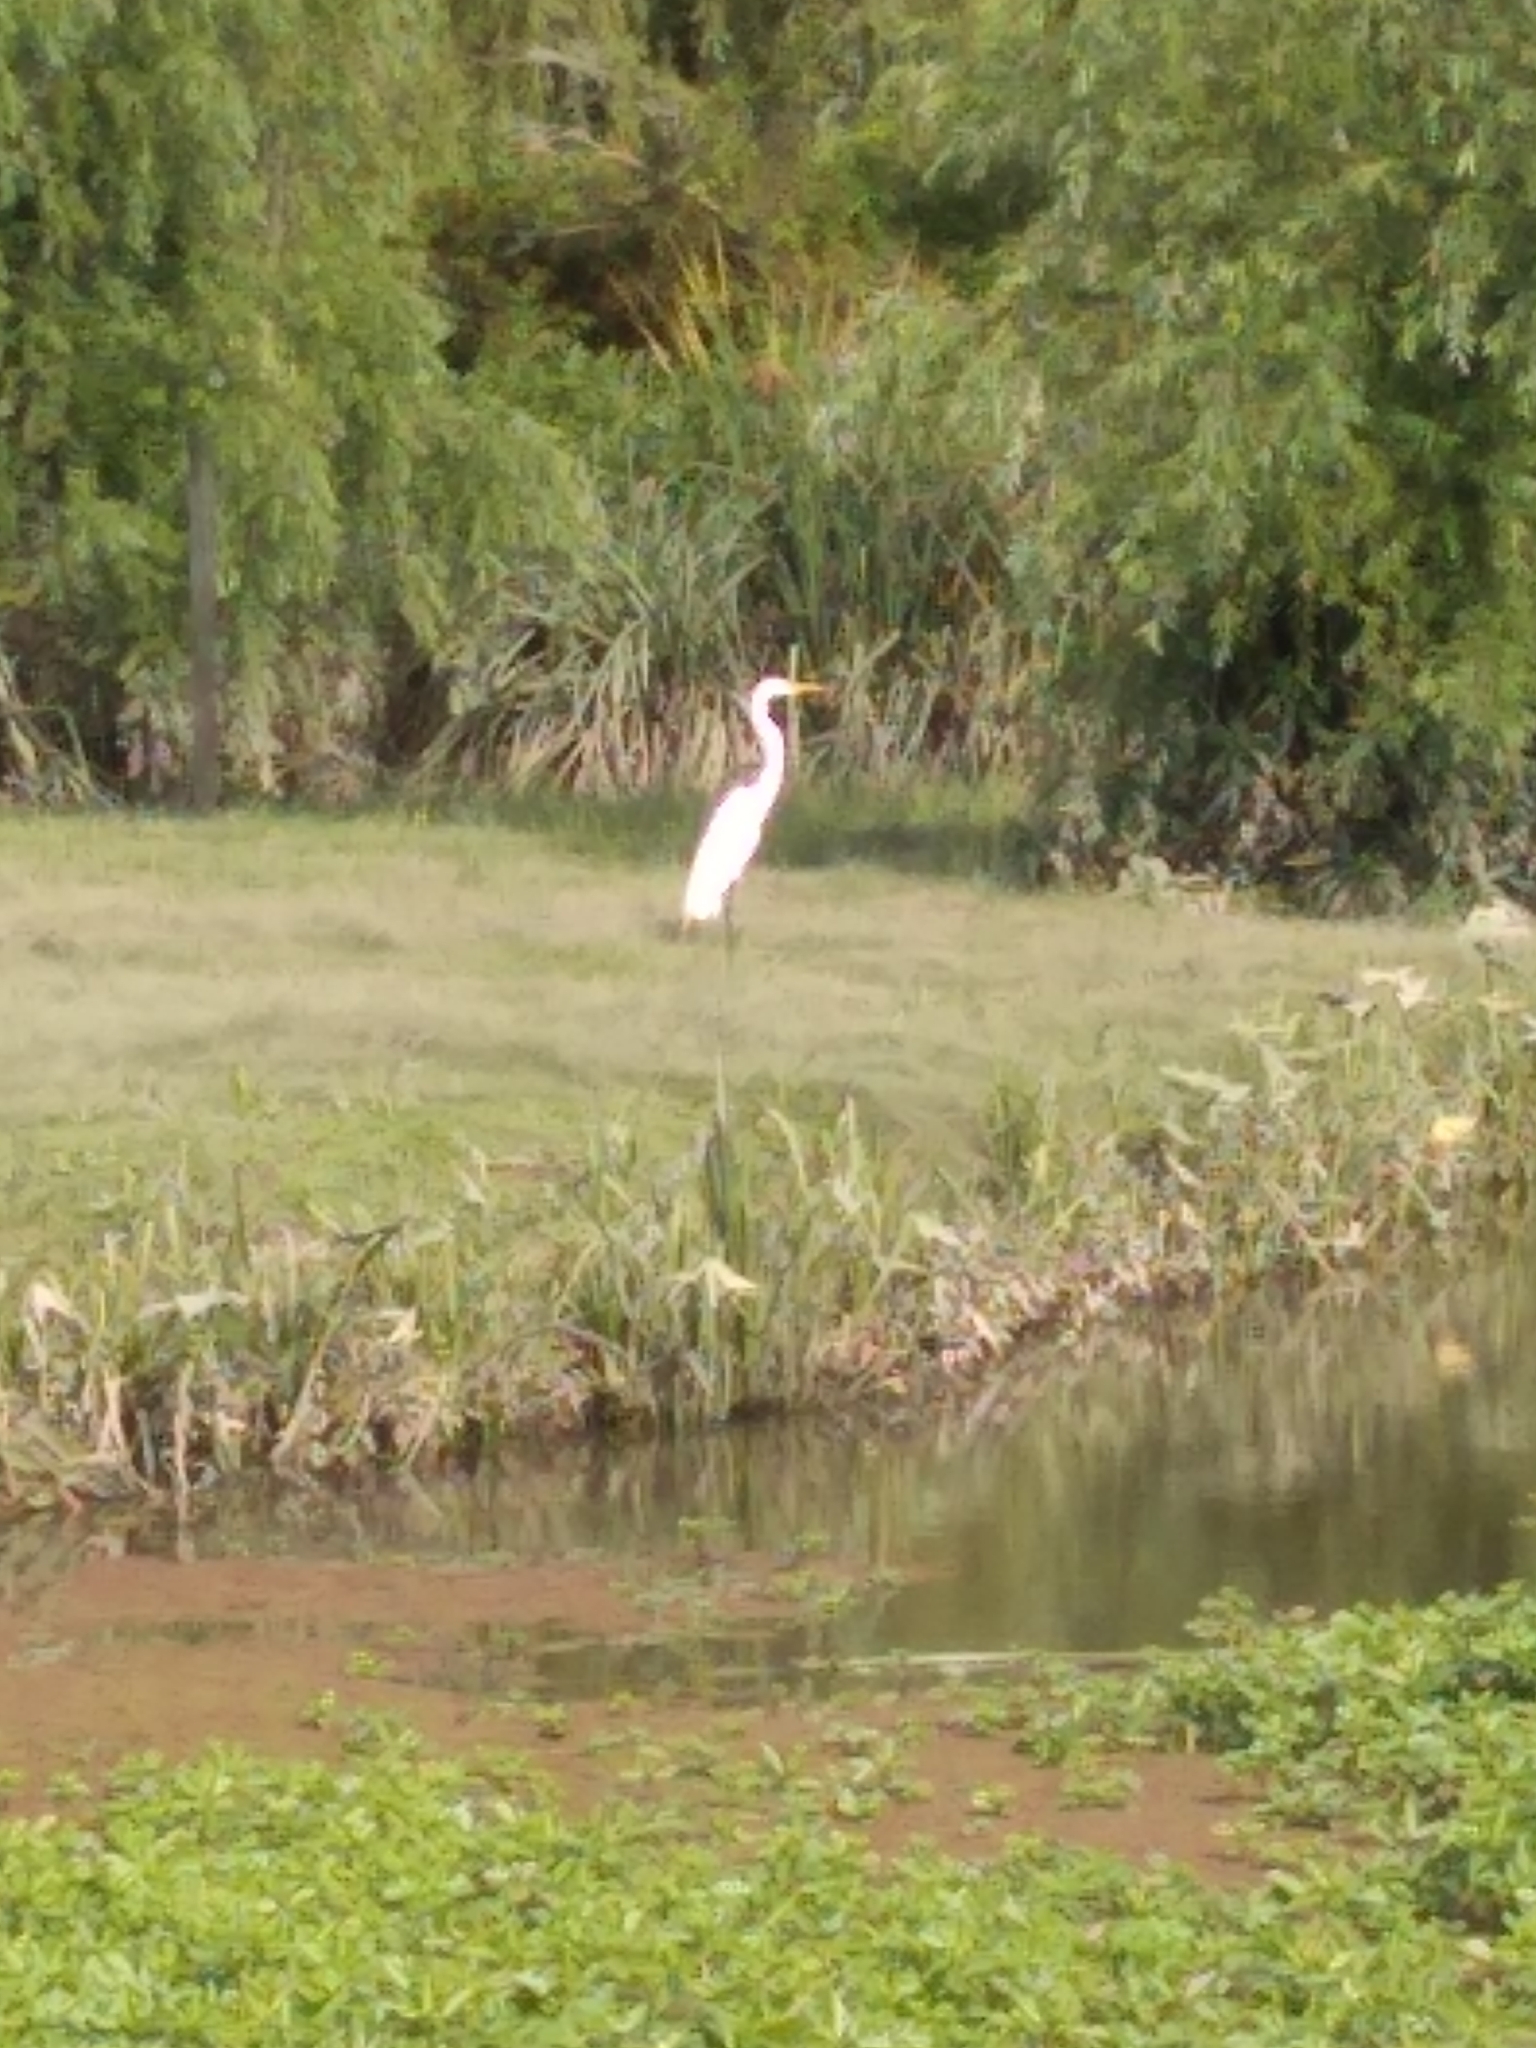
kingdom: Animalia
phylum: Chordata
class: Aves
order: Pelecaniformes
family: Ardeidae
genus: Ardea
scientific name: Ardea alba
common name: Great egret
